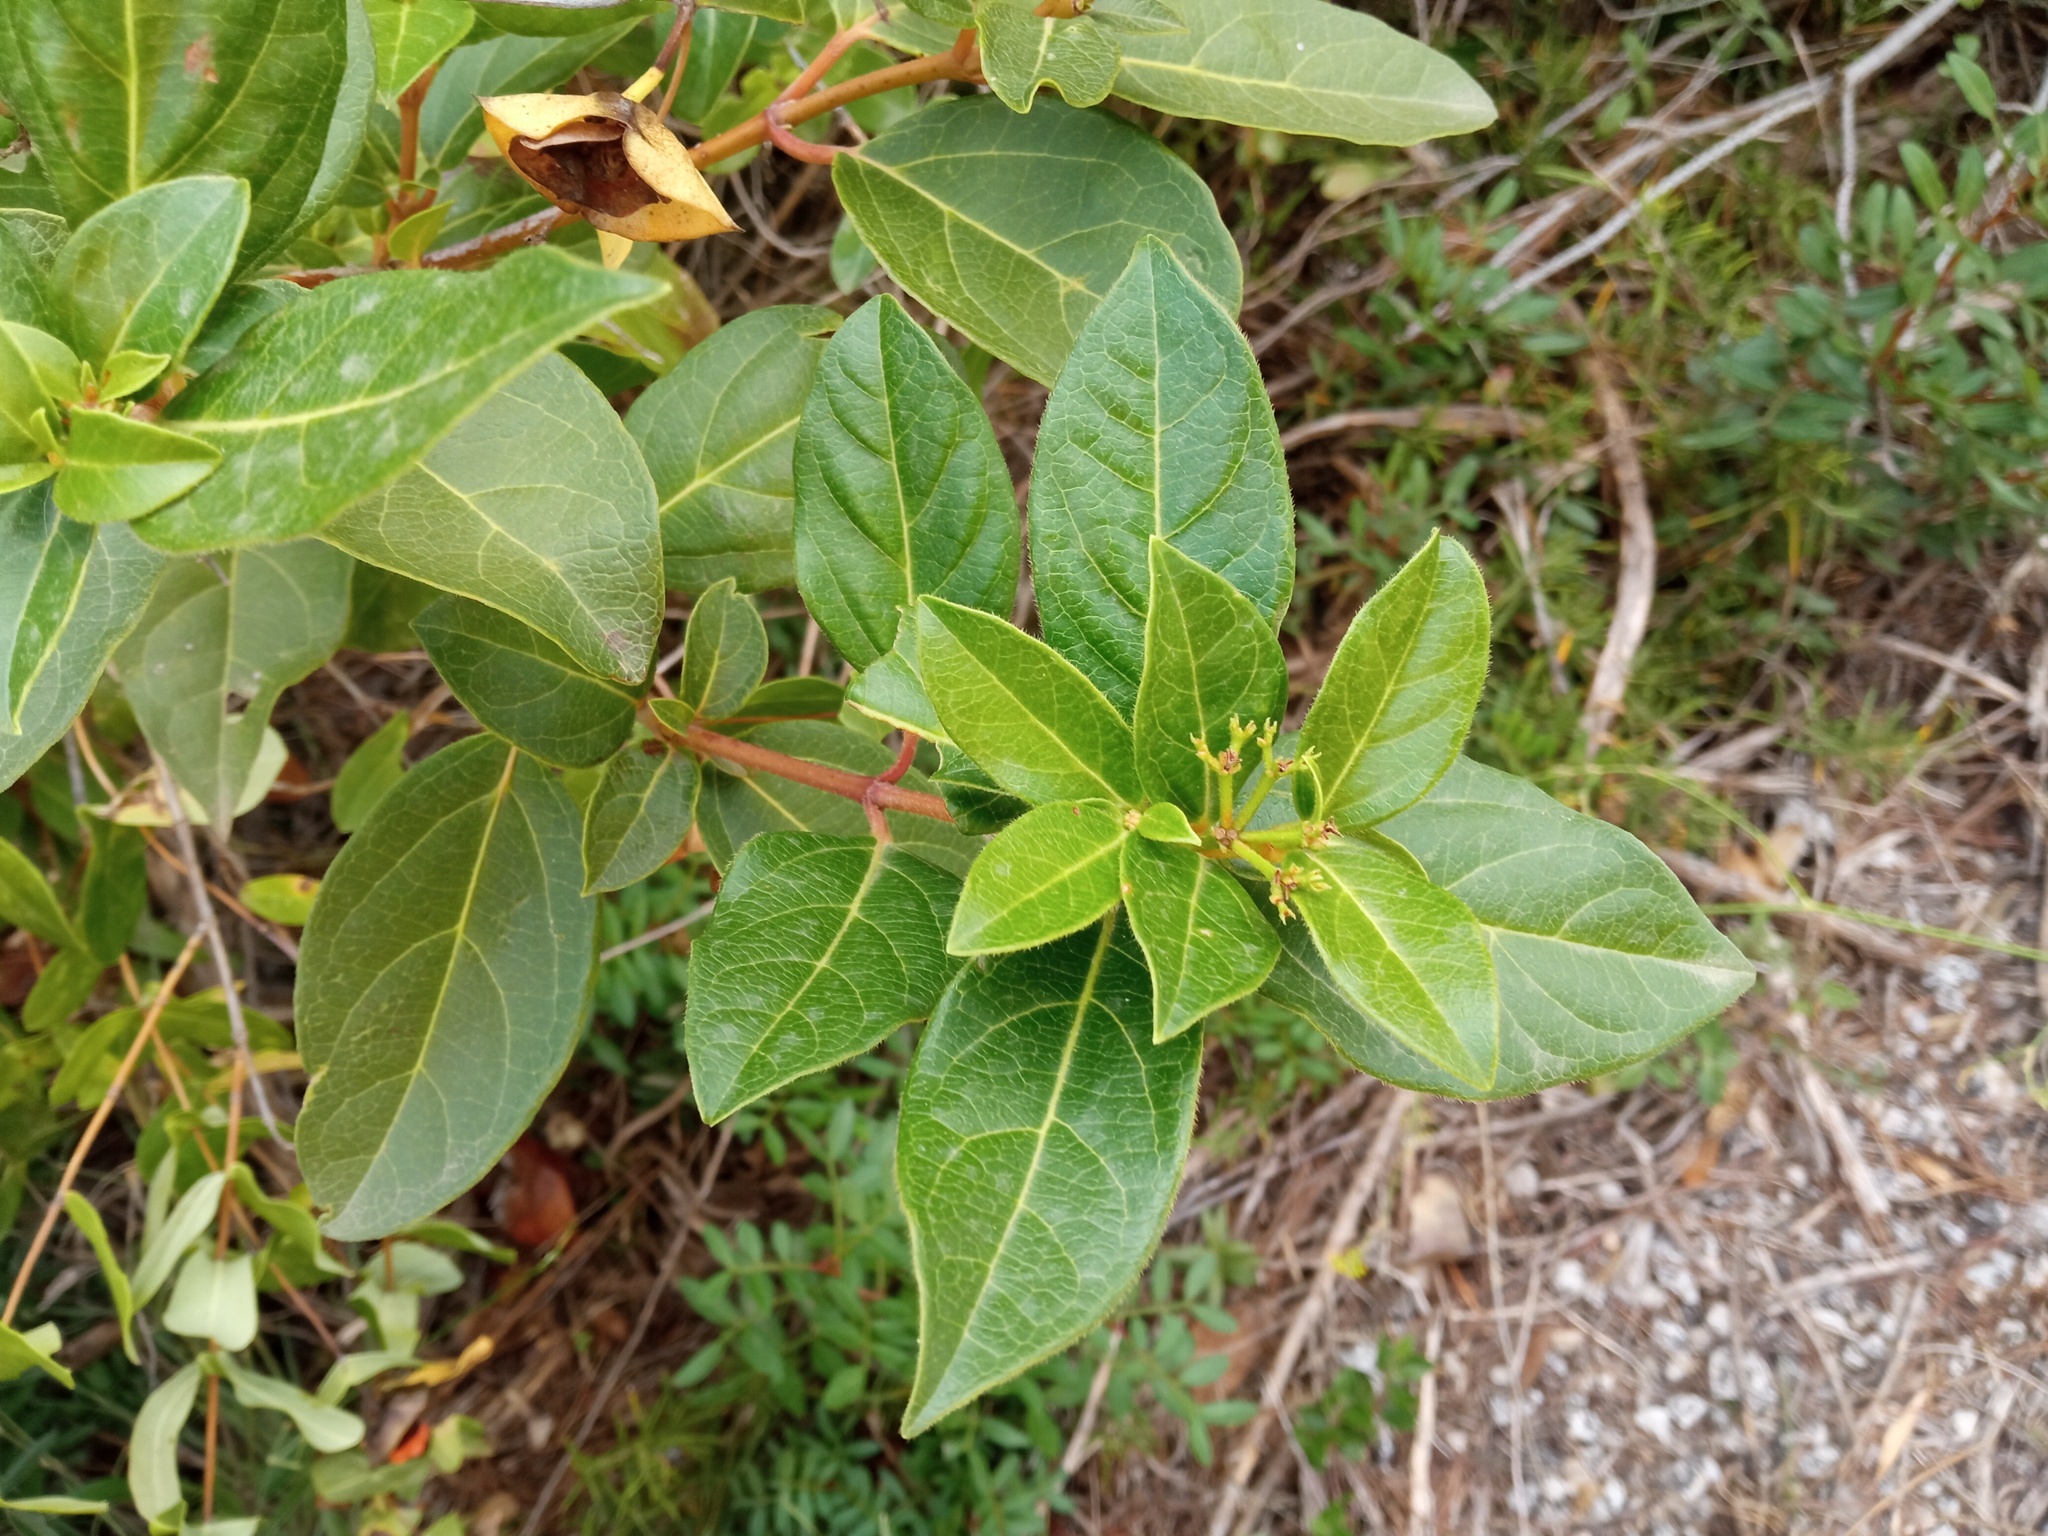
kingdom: Plantae
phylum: Tracheophyta
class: Magnoliopsida
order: Dipsacales
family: Viburnaceae
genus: Viburnum
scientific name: Viburnum tinus
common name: Laurustinus
